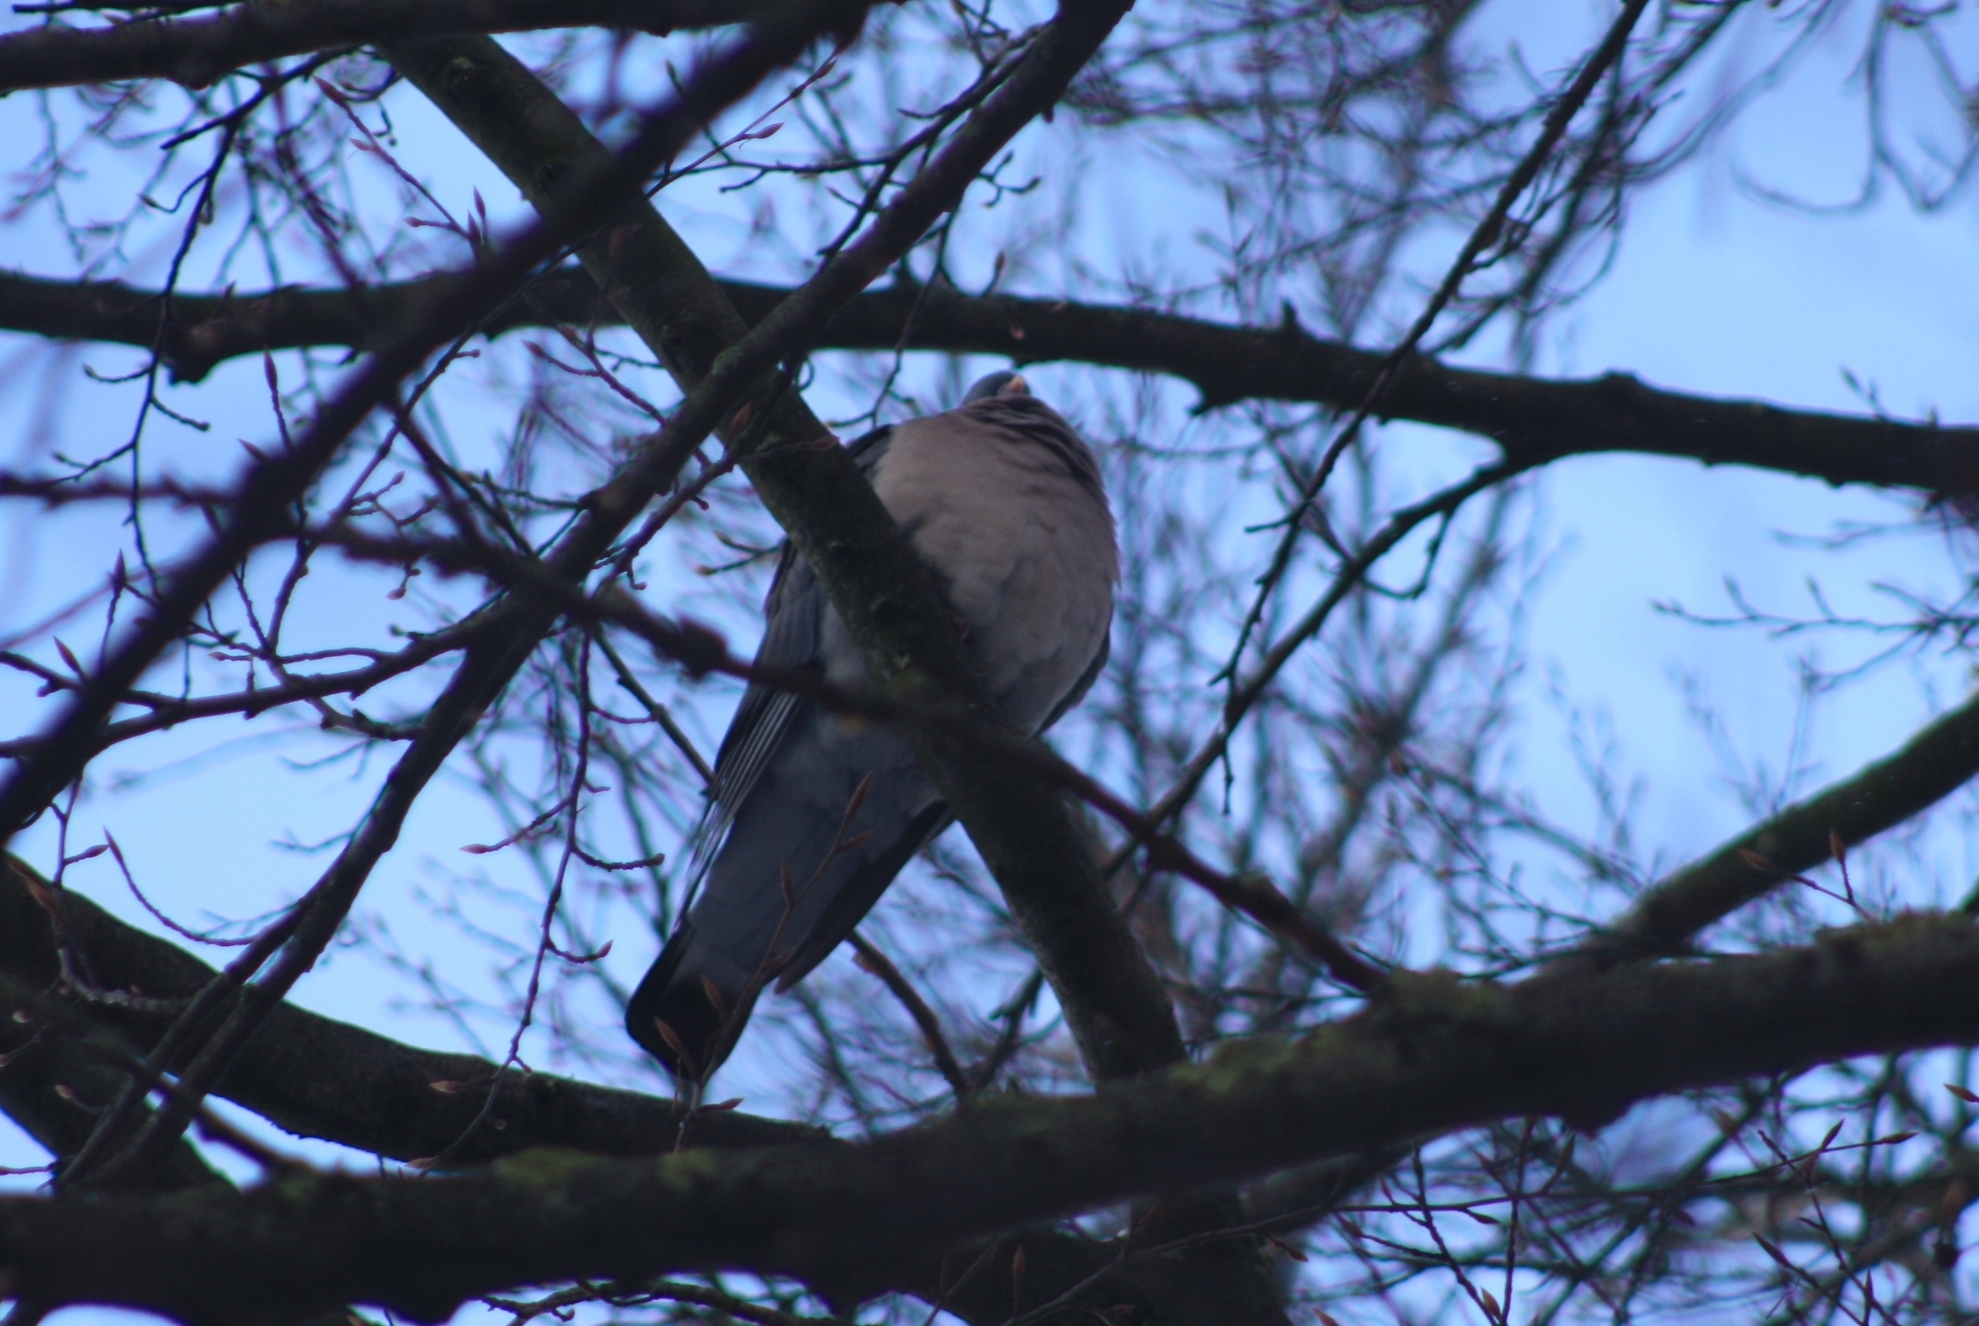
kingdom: Animalia
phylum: Chordata
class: Aves
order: Columbiformes
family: Columbidae
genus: Columba
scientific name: Columba palumbus
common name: Common wood pigeon
